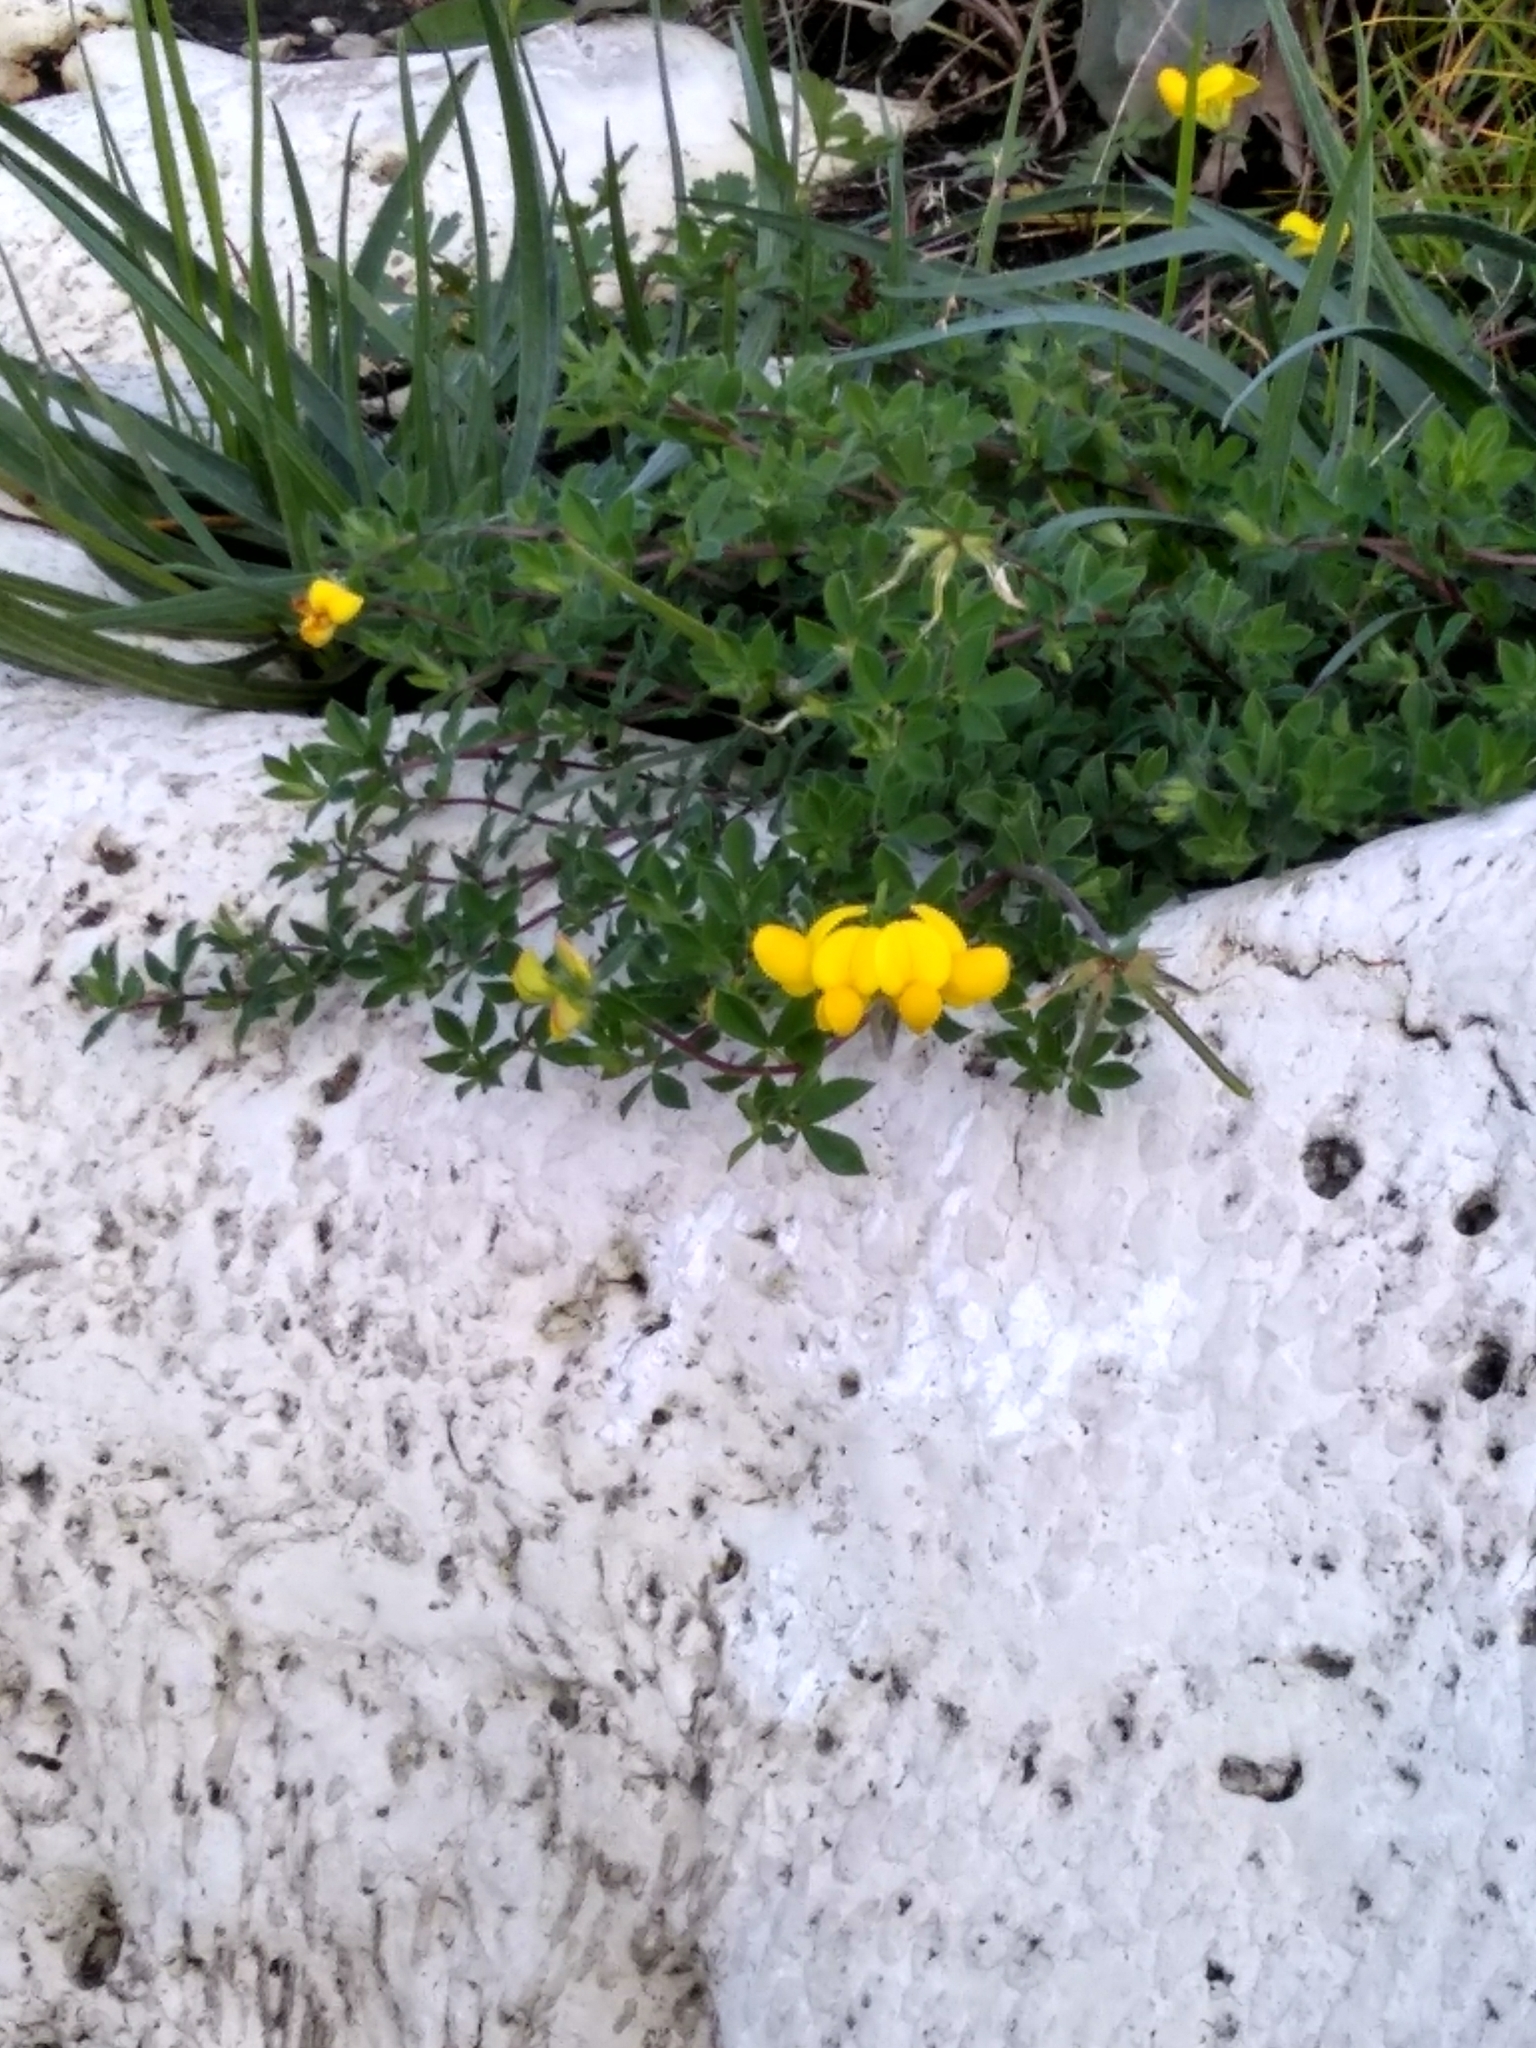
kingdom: Plantae
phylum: Tracheophyta
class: Magnoliopsida
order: Fabales
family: Fabaceae
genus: Lotus
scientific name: Lotus corniculatus
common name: Common bird's-foot-trefoil
